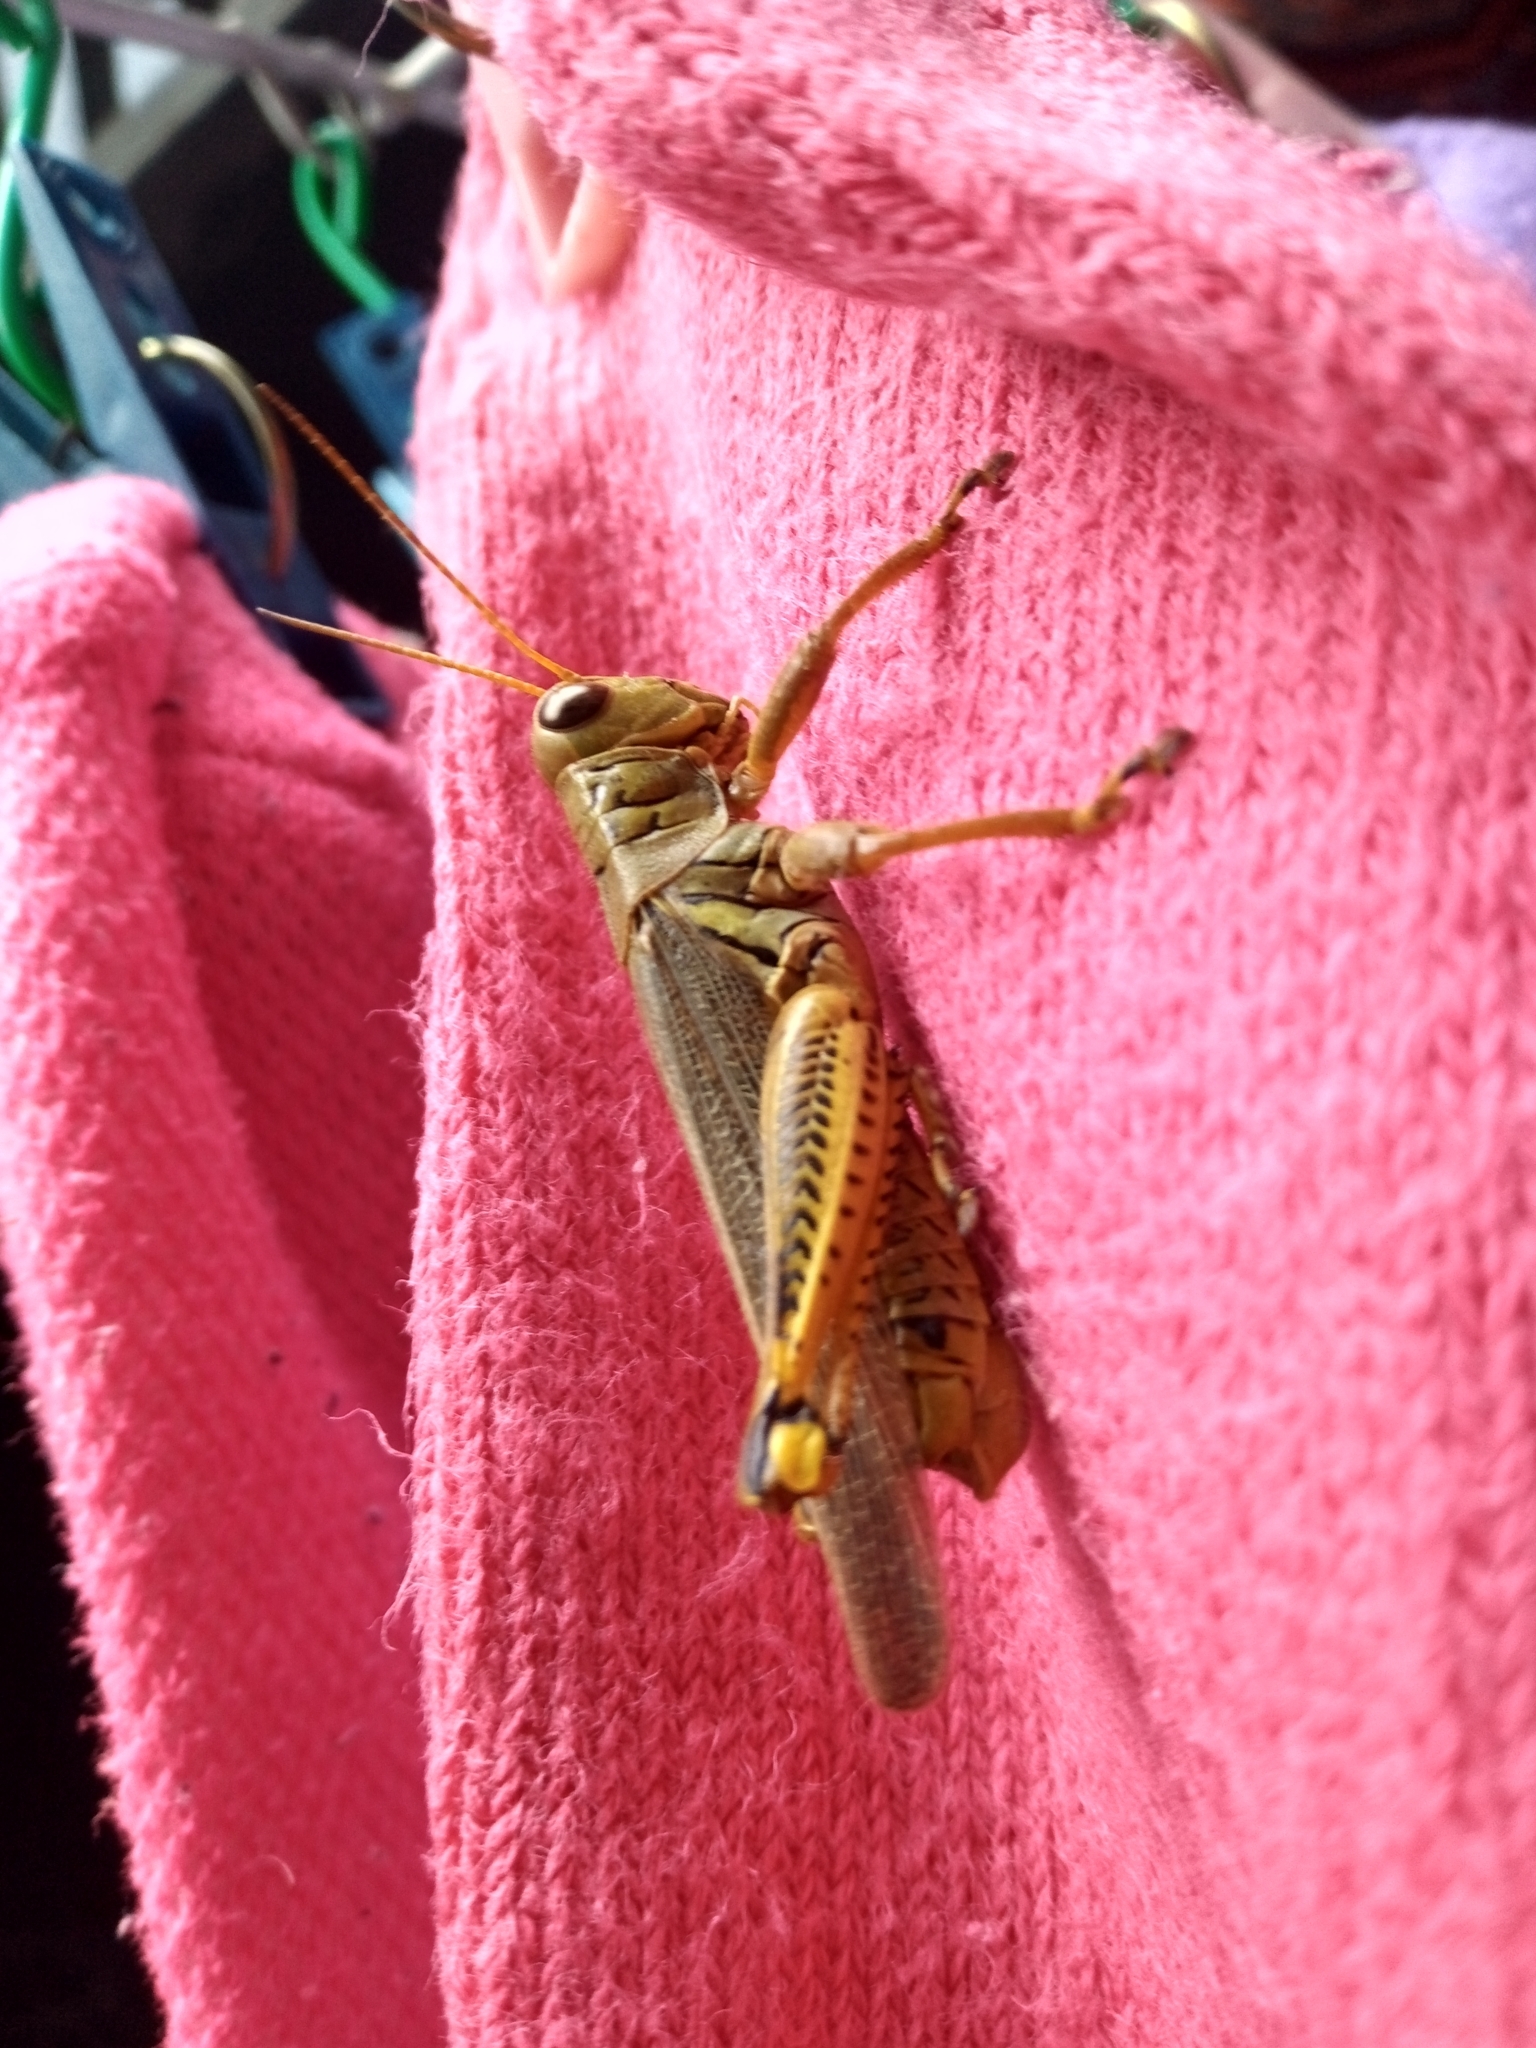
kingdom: Animalia
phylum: Arthropoda
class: Insecta
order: Orthoptera
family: Acrididae
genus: Melanoplus
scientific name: Melanoplus differentialis
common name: Differential grasshopper
